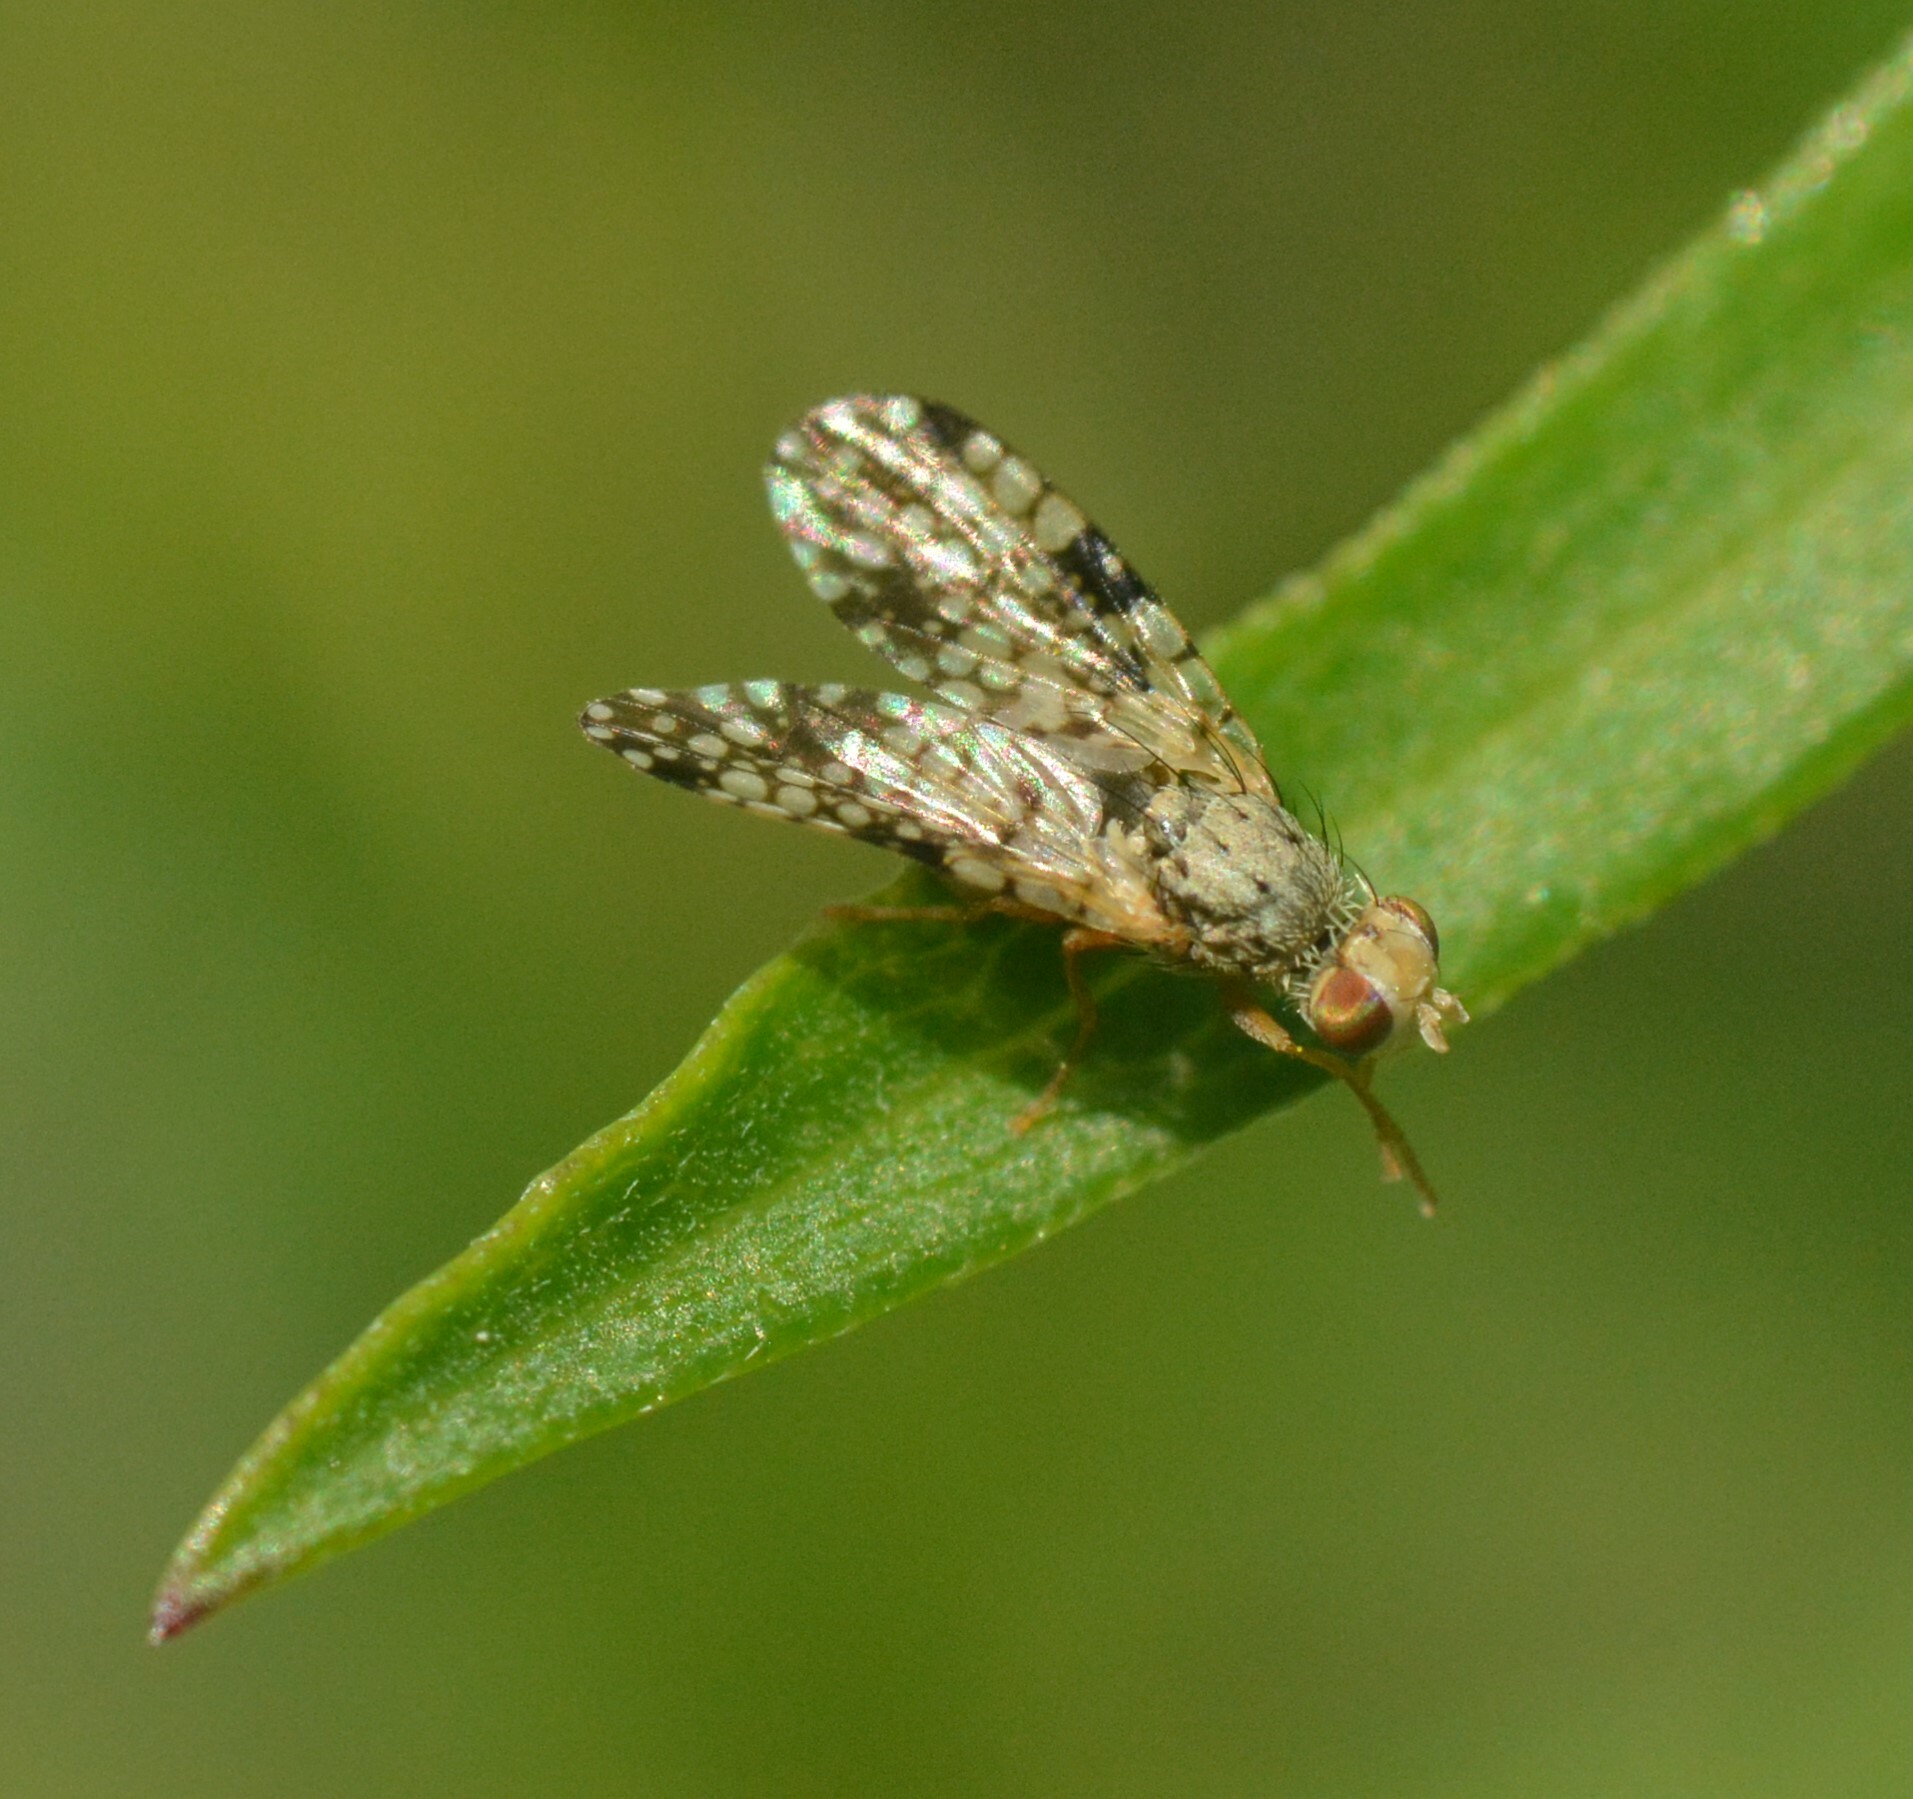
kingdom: Animalia
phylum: Arthropoda
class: Insecta
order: Diptera
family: Tephritidae
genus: Campiglossa
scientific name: Campiglossa albiceps
